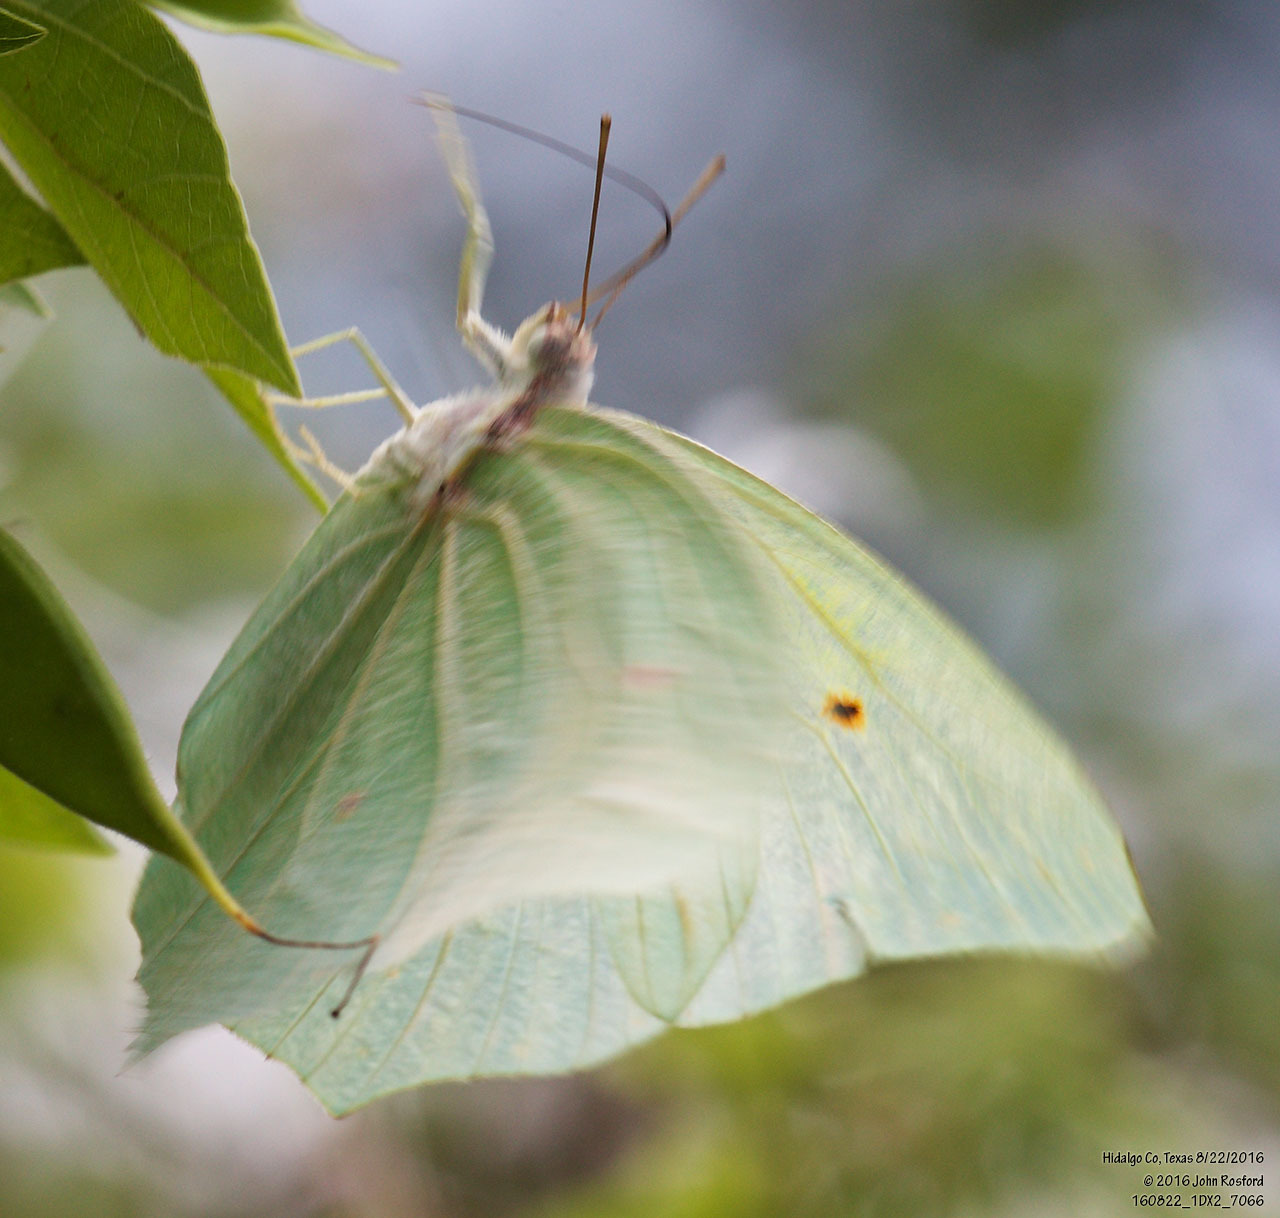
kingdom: Animalia
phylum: Arthropoda
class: Insecta
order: Lepidoptera
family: Pieridae
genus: Anteos
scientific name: Anteos clorinde
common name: White angled sulphur
